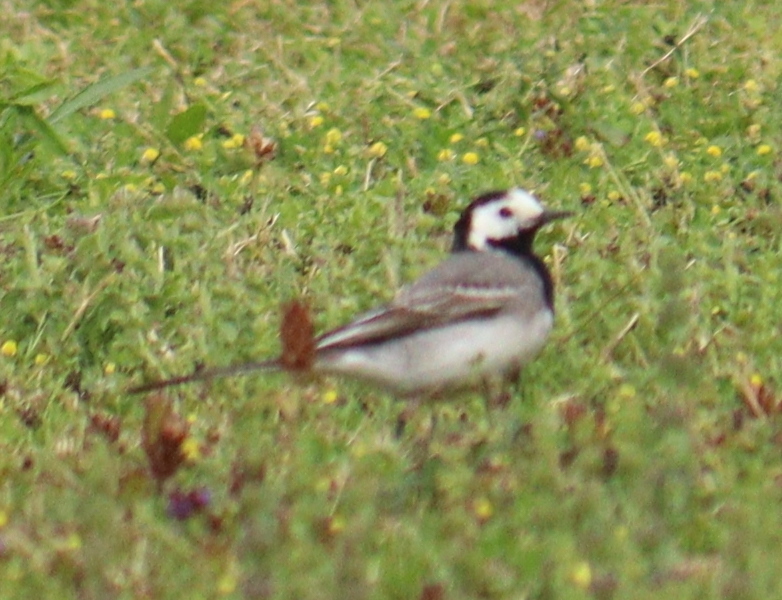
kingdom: Animalia
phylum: Chordata
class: Aves
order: Passeriformes
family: Motacillidae
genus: Motacilla
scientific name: Motacilla alba
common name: White wagtail
